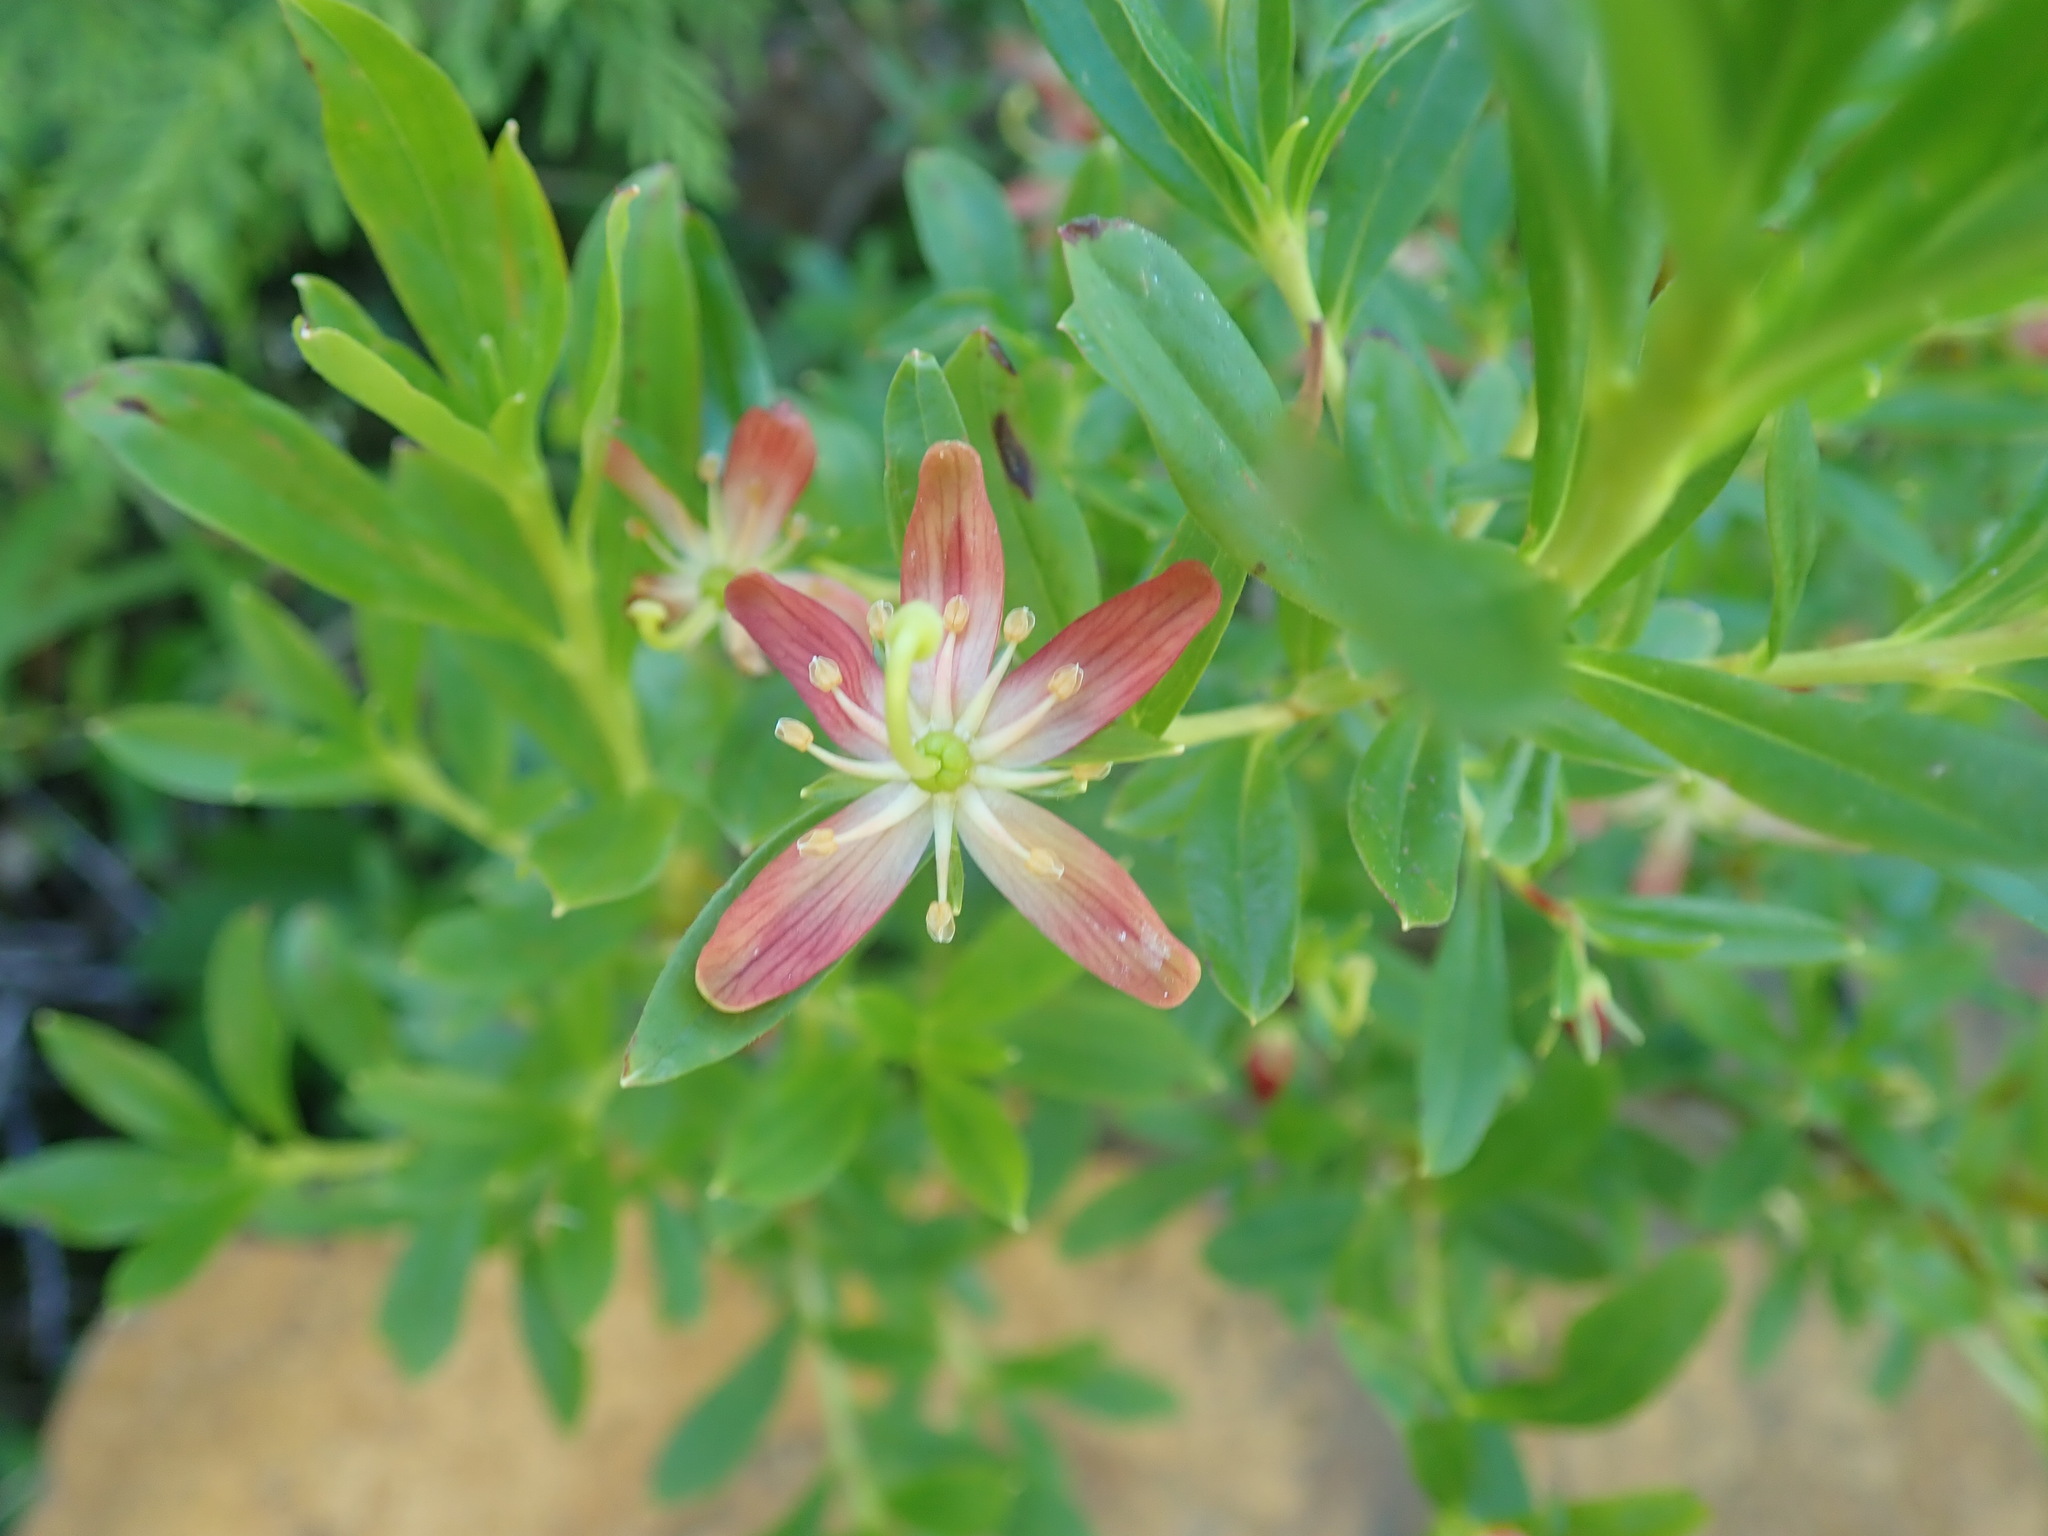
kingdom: Plantae
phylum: Tracheophyta
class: Magnoliopsida
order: Ericales
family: Ericaceae
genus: Elliottia
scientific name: Elliottia pyroliflora
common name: Copperbush
